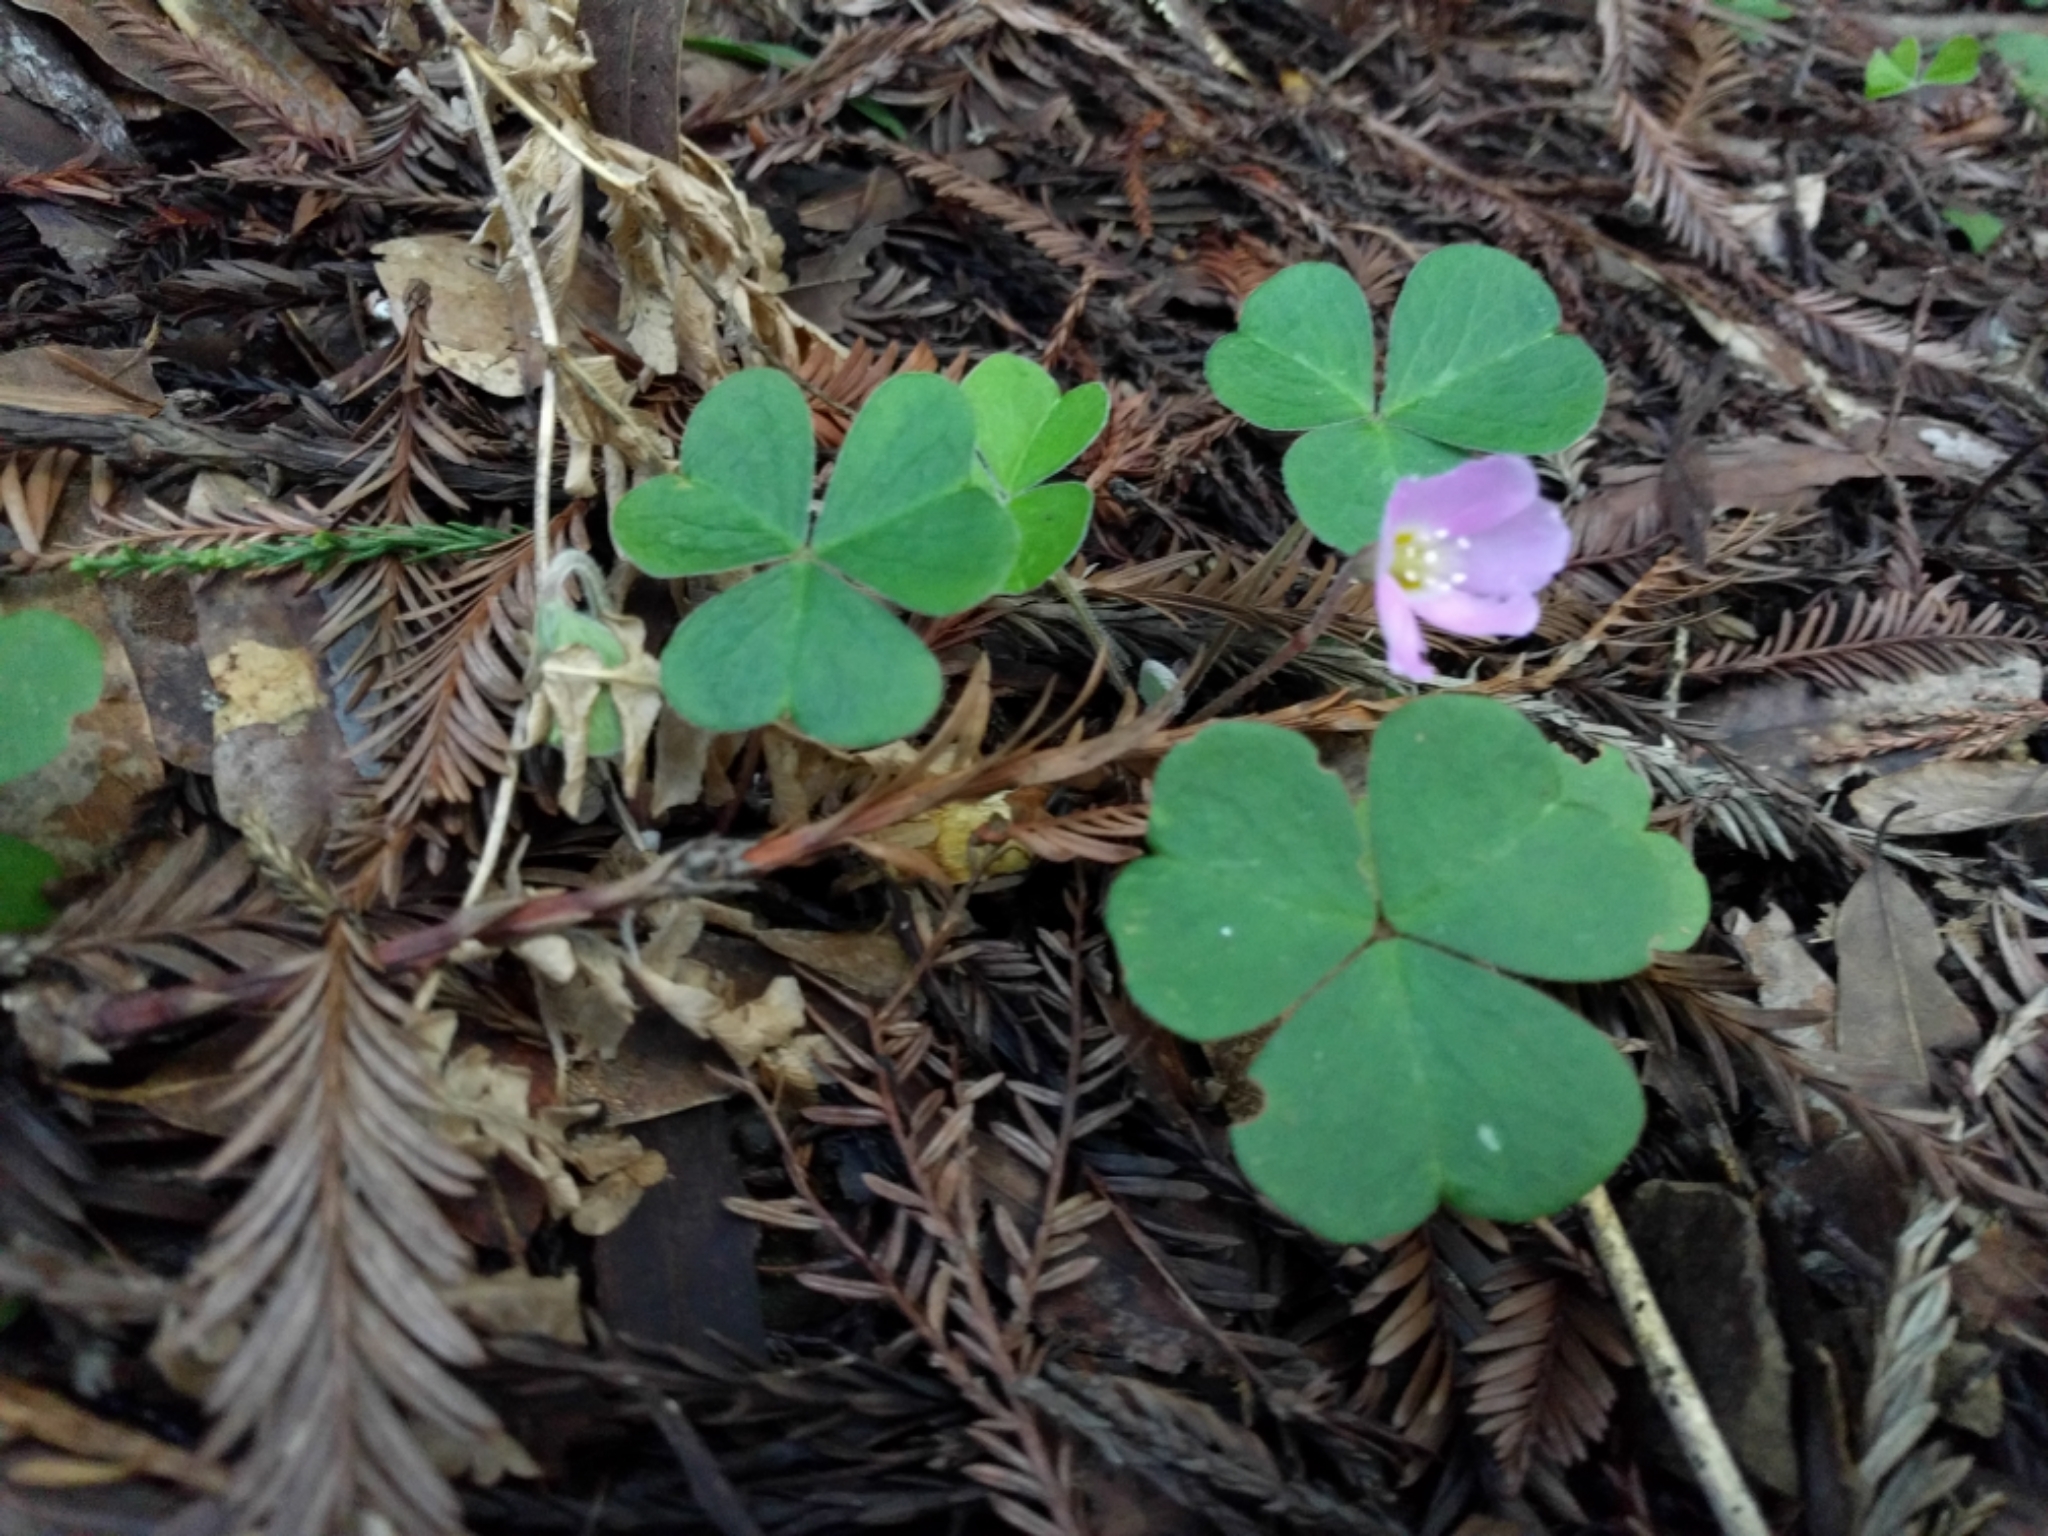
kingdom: Plantae
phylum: Tracheophyta
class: Magnoliopsida
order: Oxalidales
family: Oxalidaceae
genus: Oxalis
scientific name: Oxalis oregana
